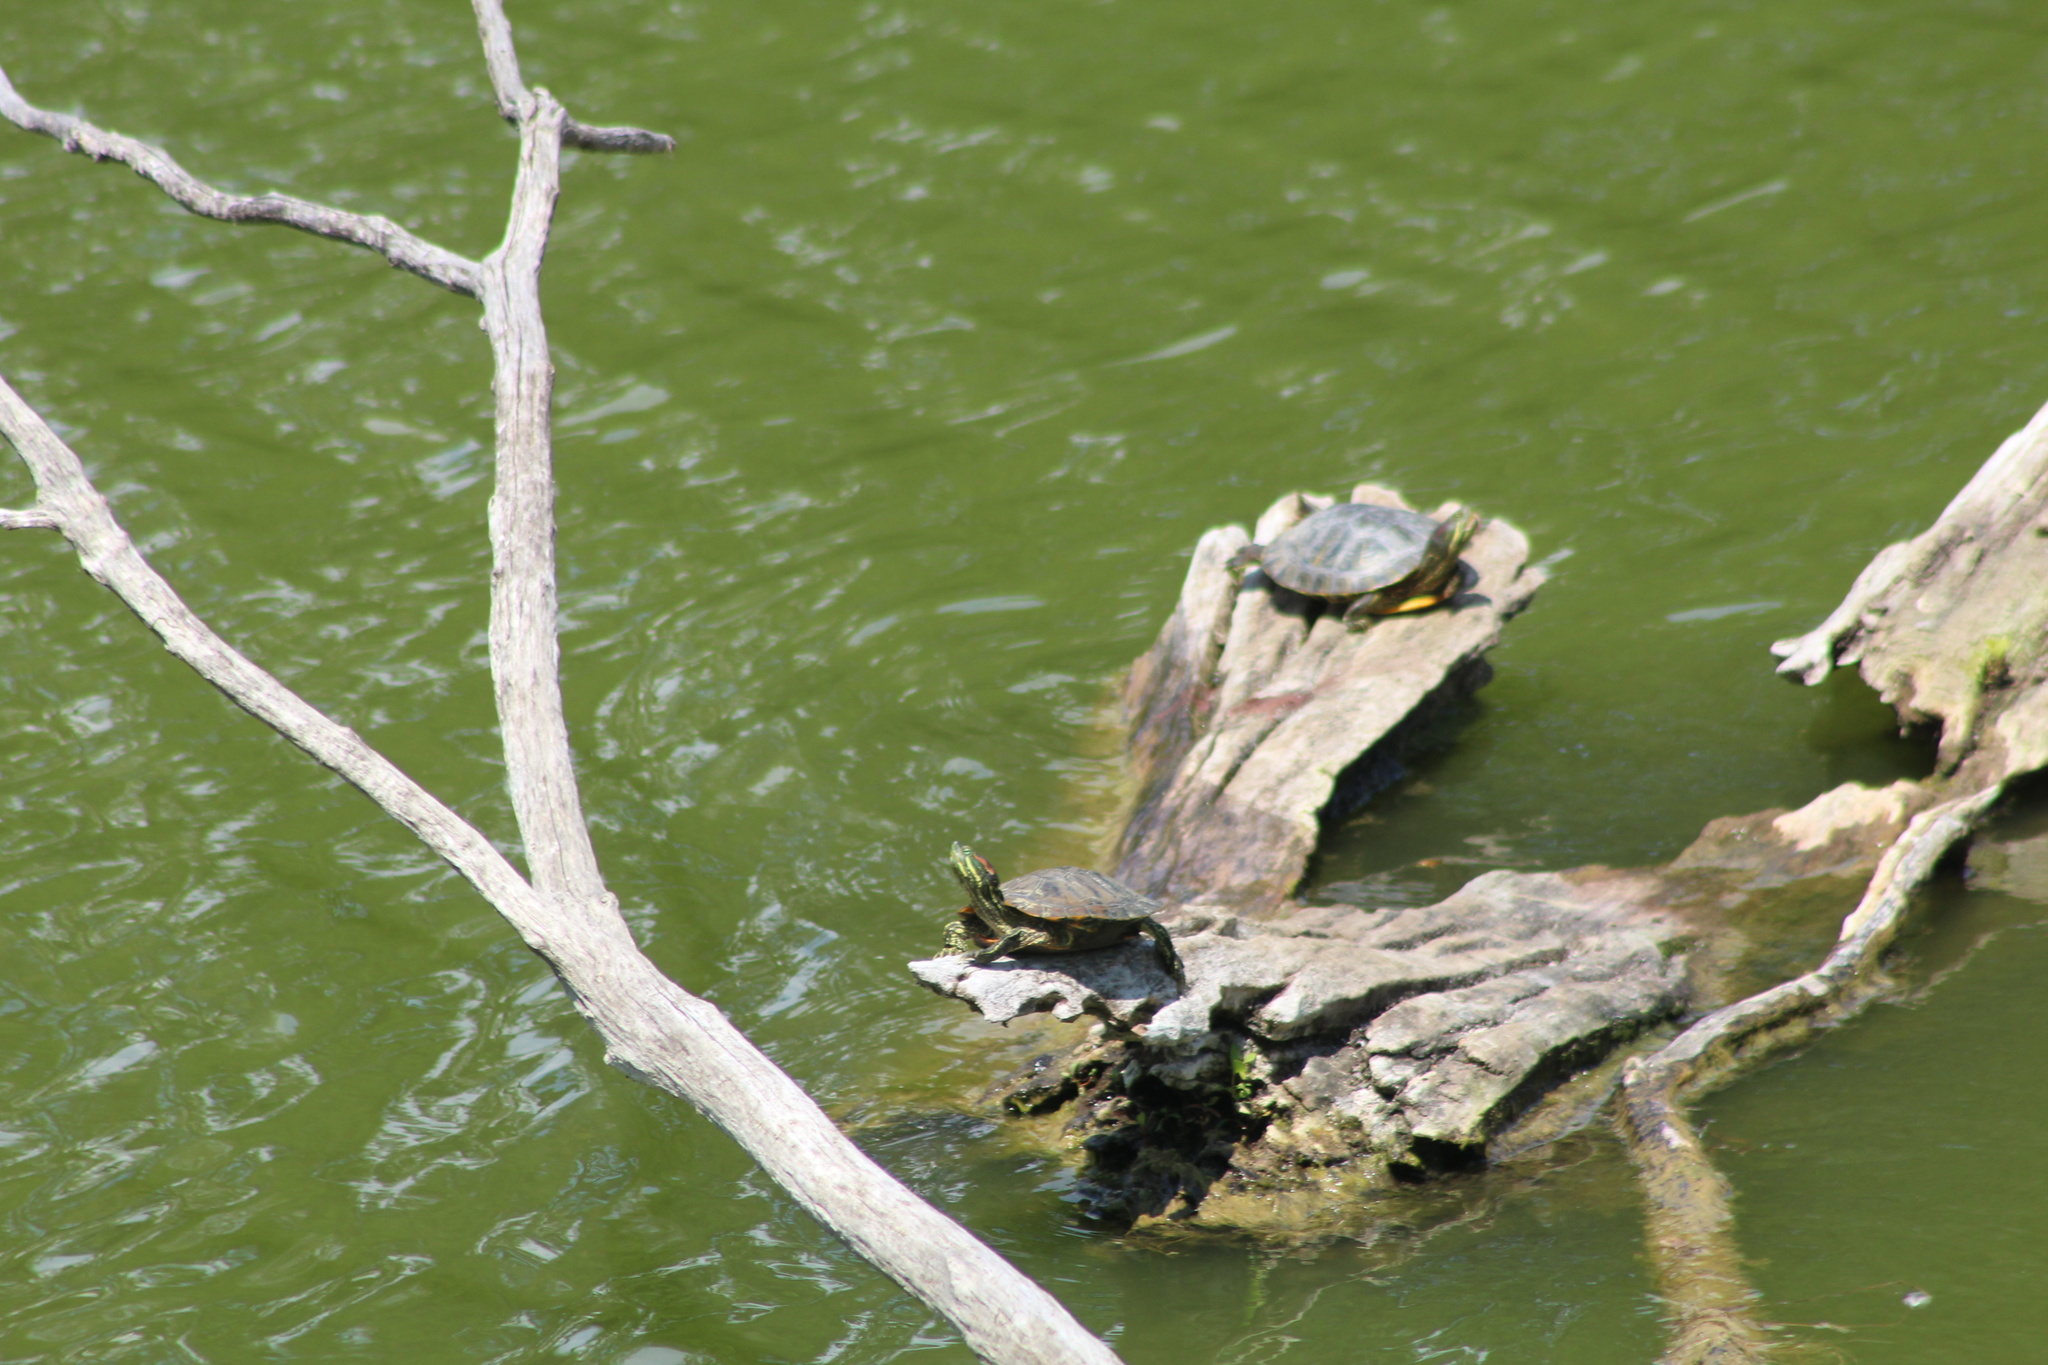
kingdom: Animalia
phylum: Chordata
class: Testudines
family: Emydidae
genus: Trachemys
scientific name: Trachemys scripta
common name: Slider
